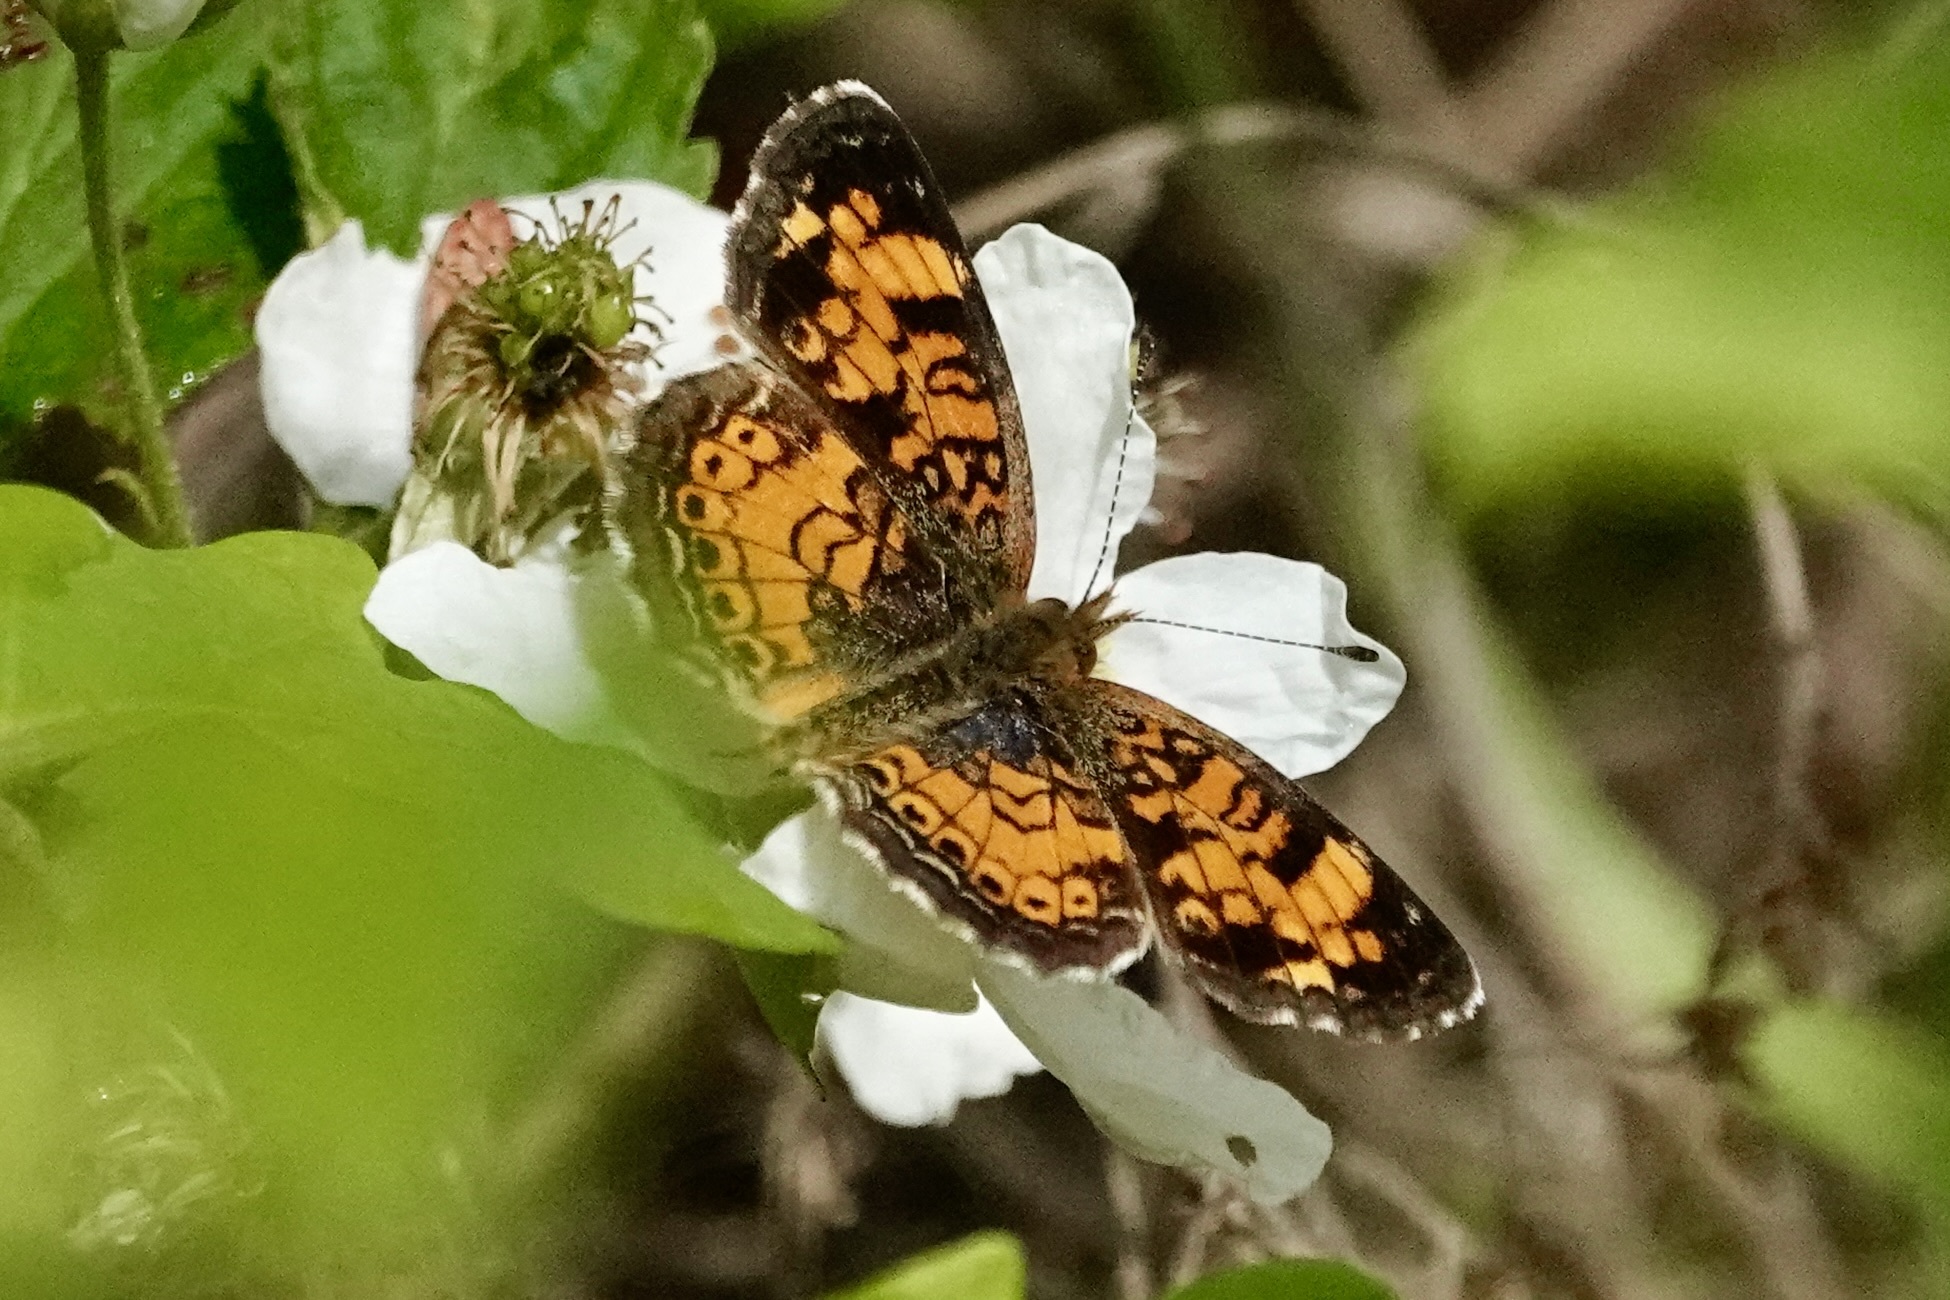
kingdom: Animalia
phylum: Arthropoda
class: Insecta
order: Lepidoptera
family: Nymphalidae
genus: Phyciodes
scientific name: Phyciodes tharos
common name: Pearl crescent
